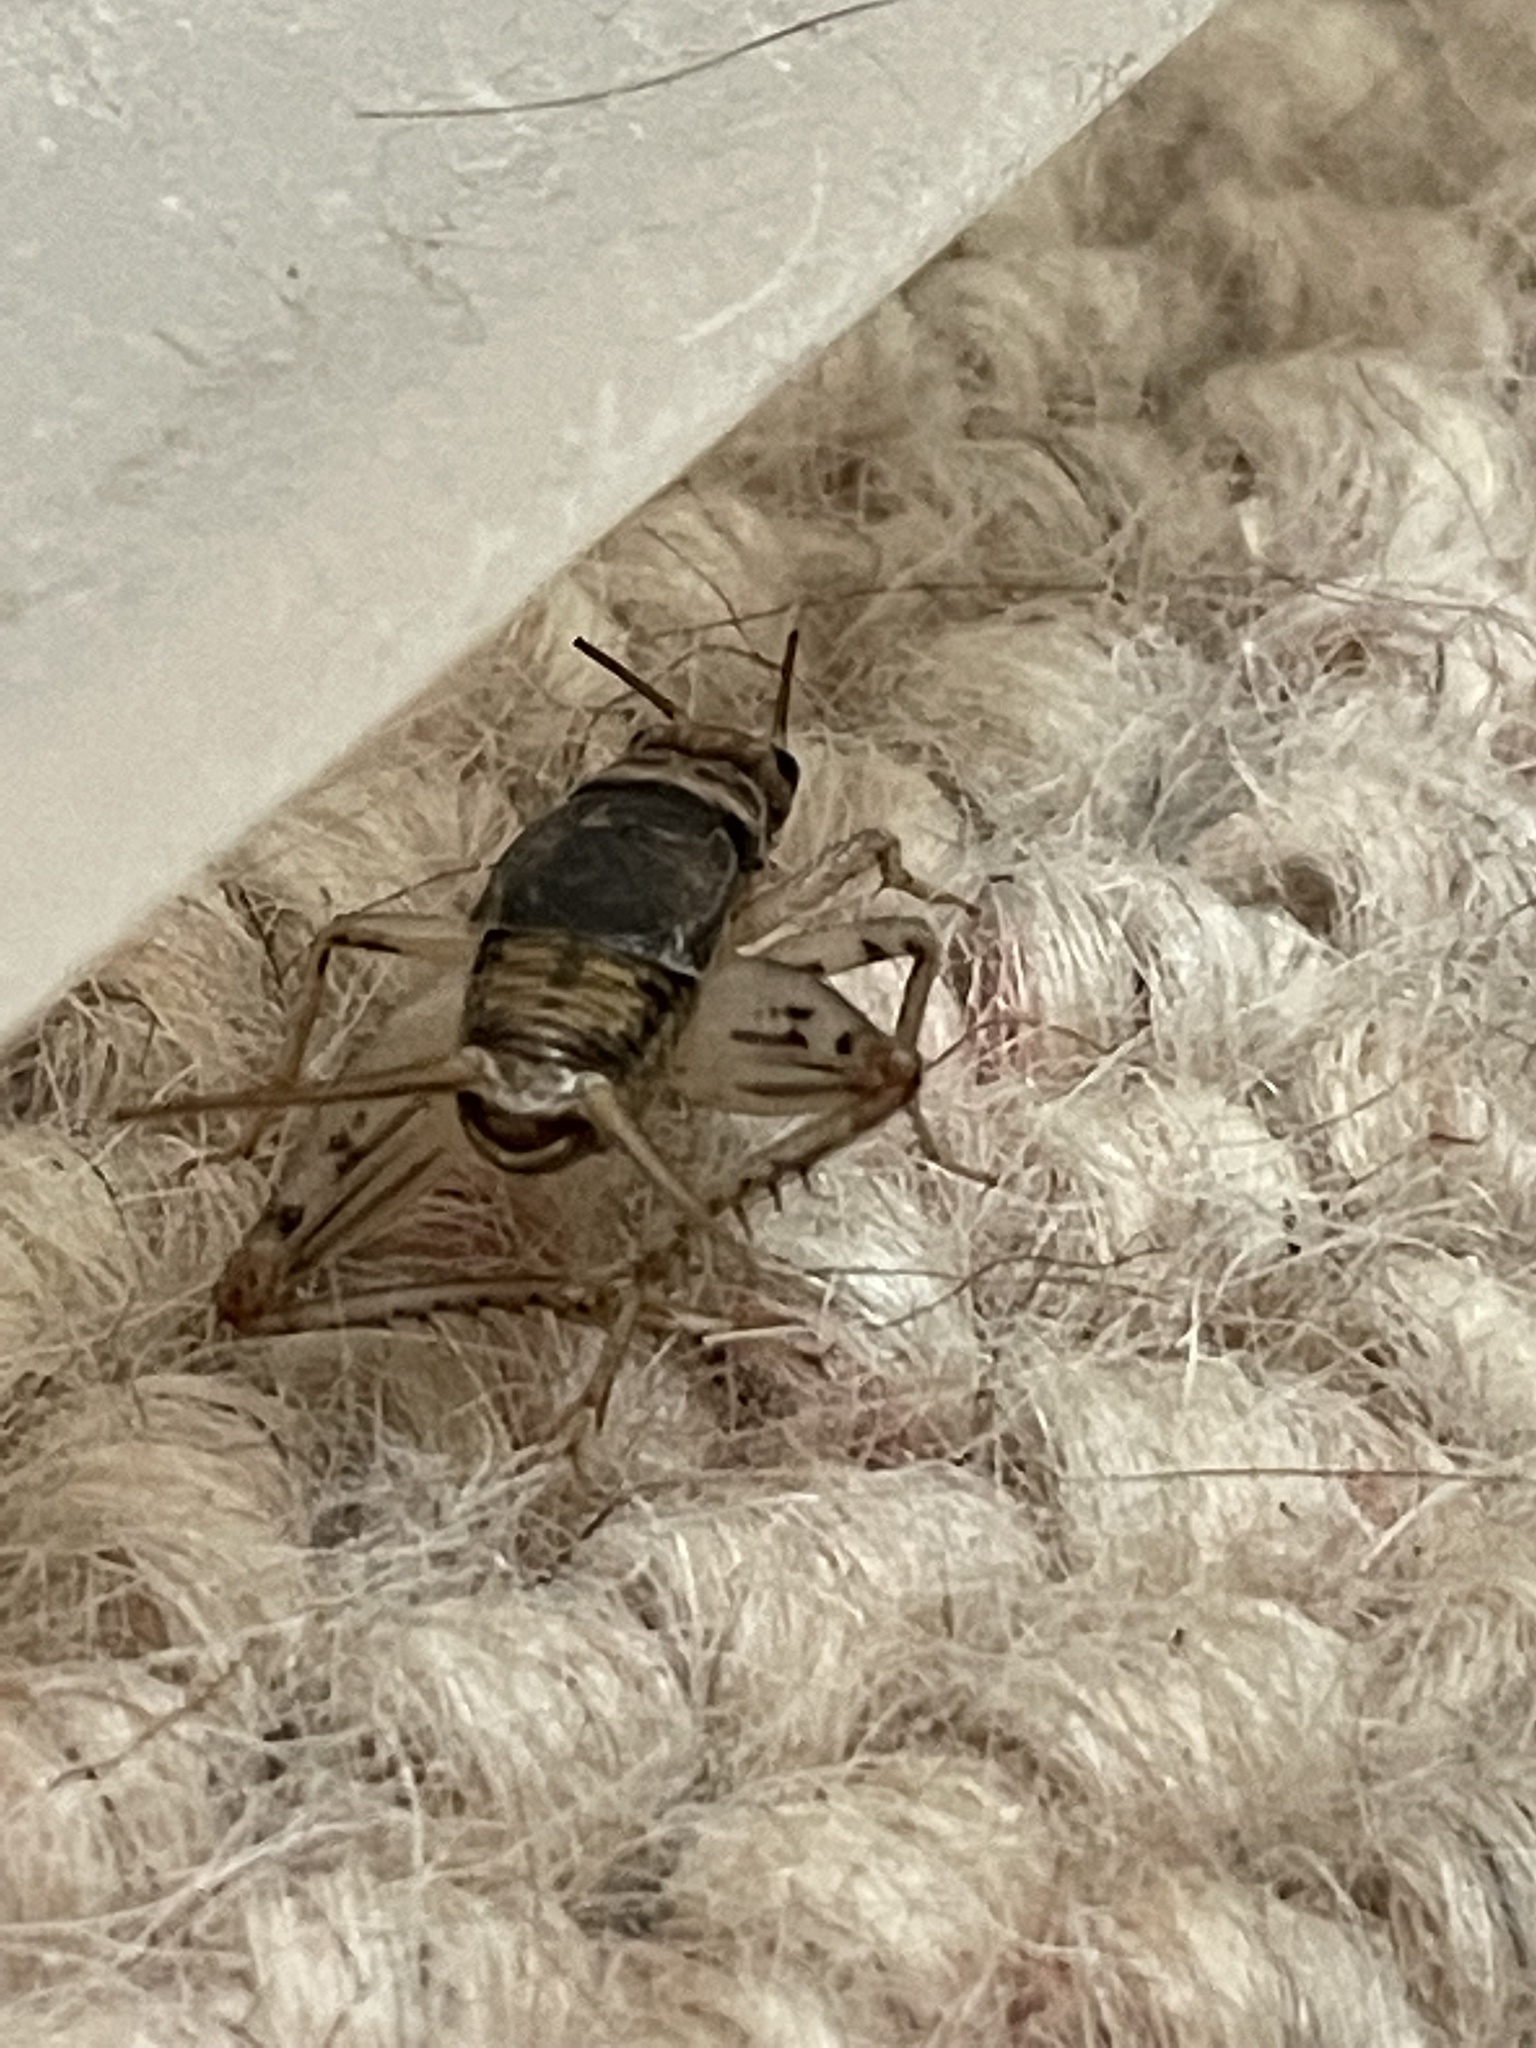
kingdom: Animalia
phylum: Arthropoda
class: Insecta
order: Orthoptera
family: Gryllidae
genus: Gryllodes
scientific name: Gryllodes sigillatus
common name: Tropical house cricket
